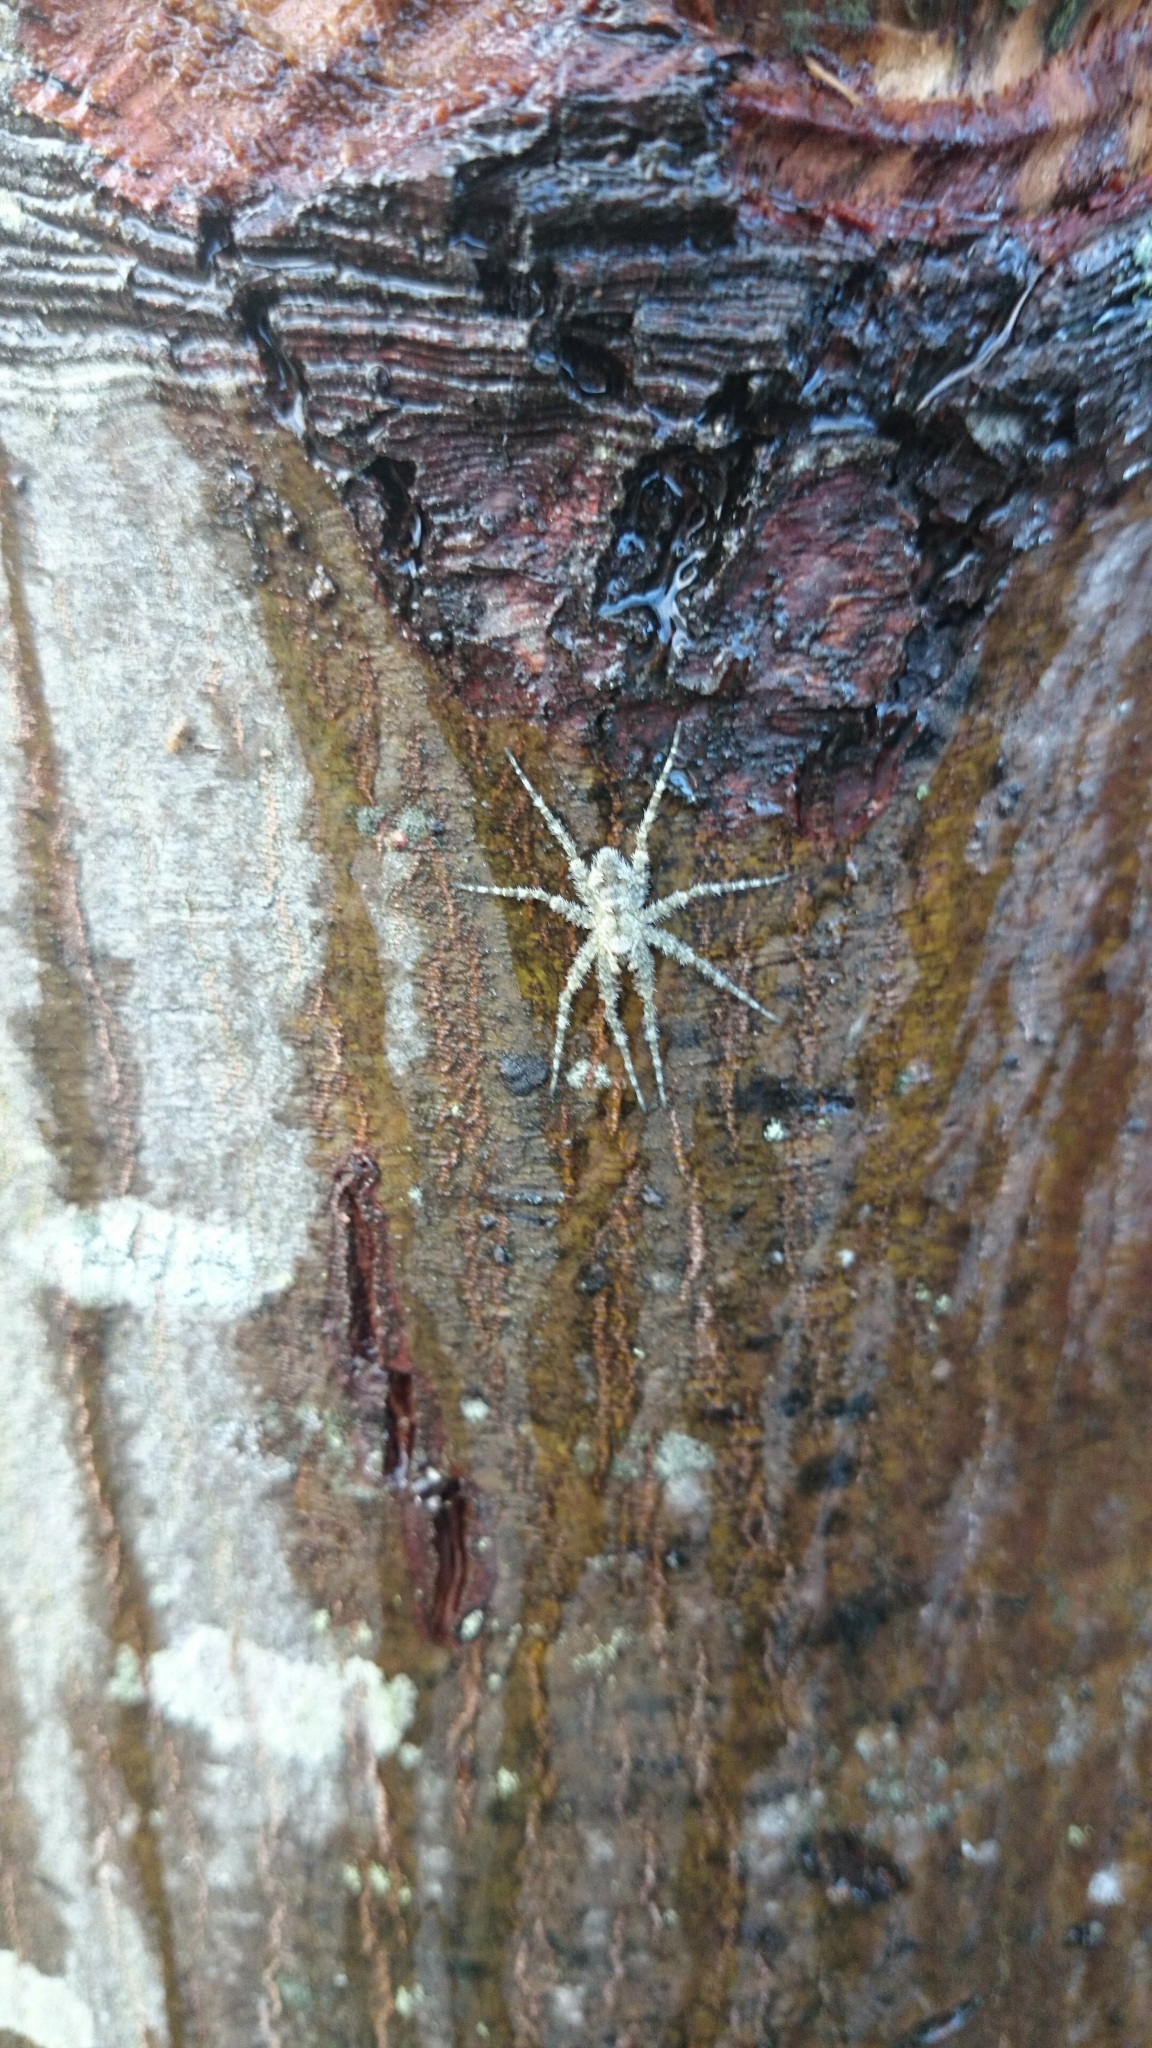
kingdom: Animalia
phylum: Arthropoda
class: Arachnida
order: Araneae
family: Pisauridae
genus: Dolomedes
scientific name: Dolomedes albineus
